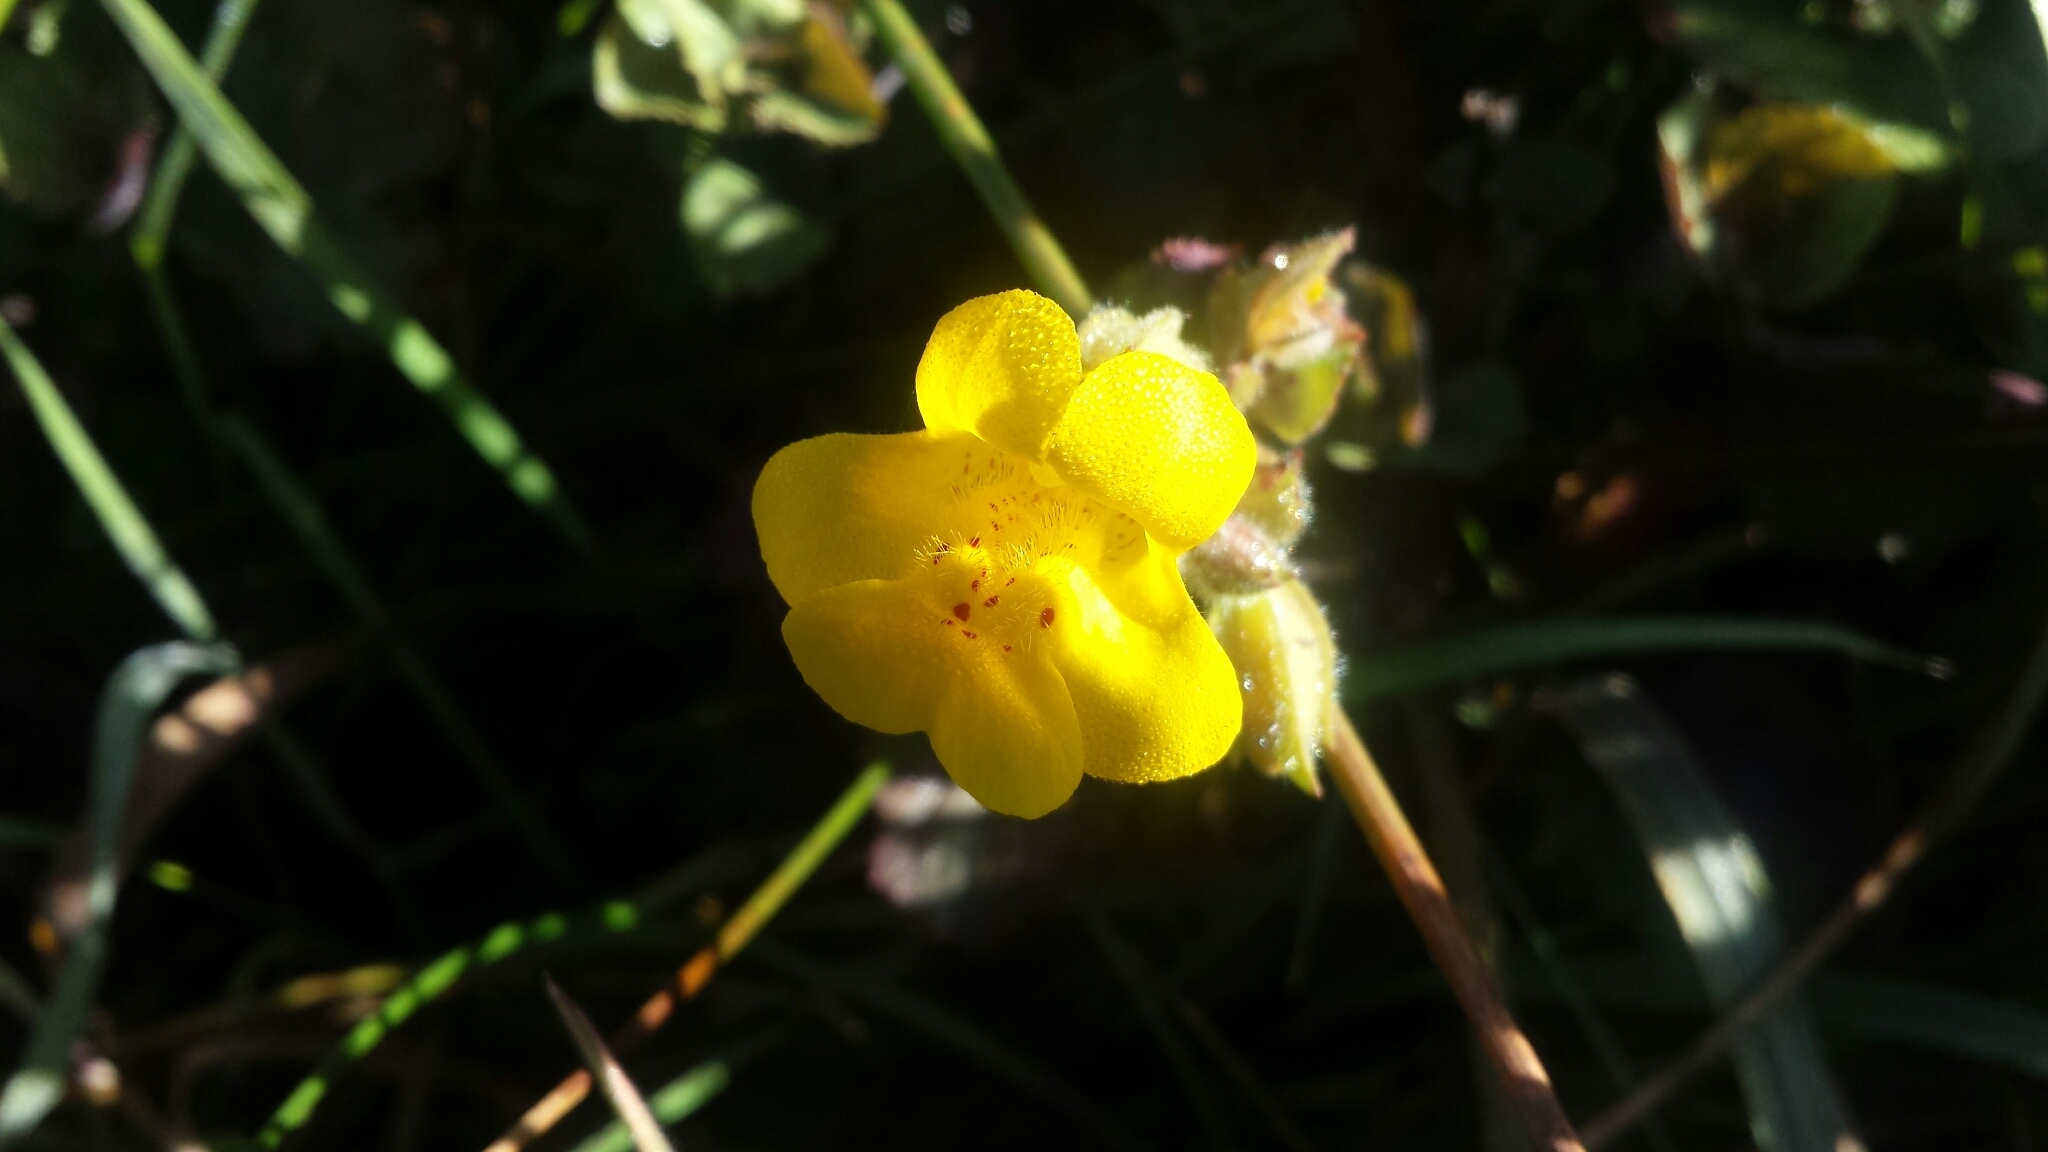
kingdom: Plantae
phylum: Tracheophyta
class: Magnoliopsida
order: Lamiales
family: Phrymaceae
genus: Erythranthe
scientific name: Erythranthe guttata
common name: Monkeyflower
